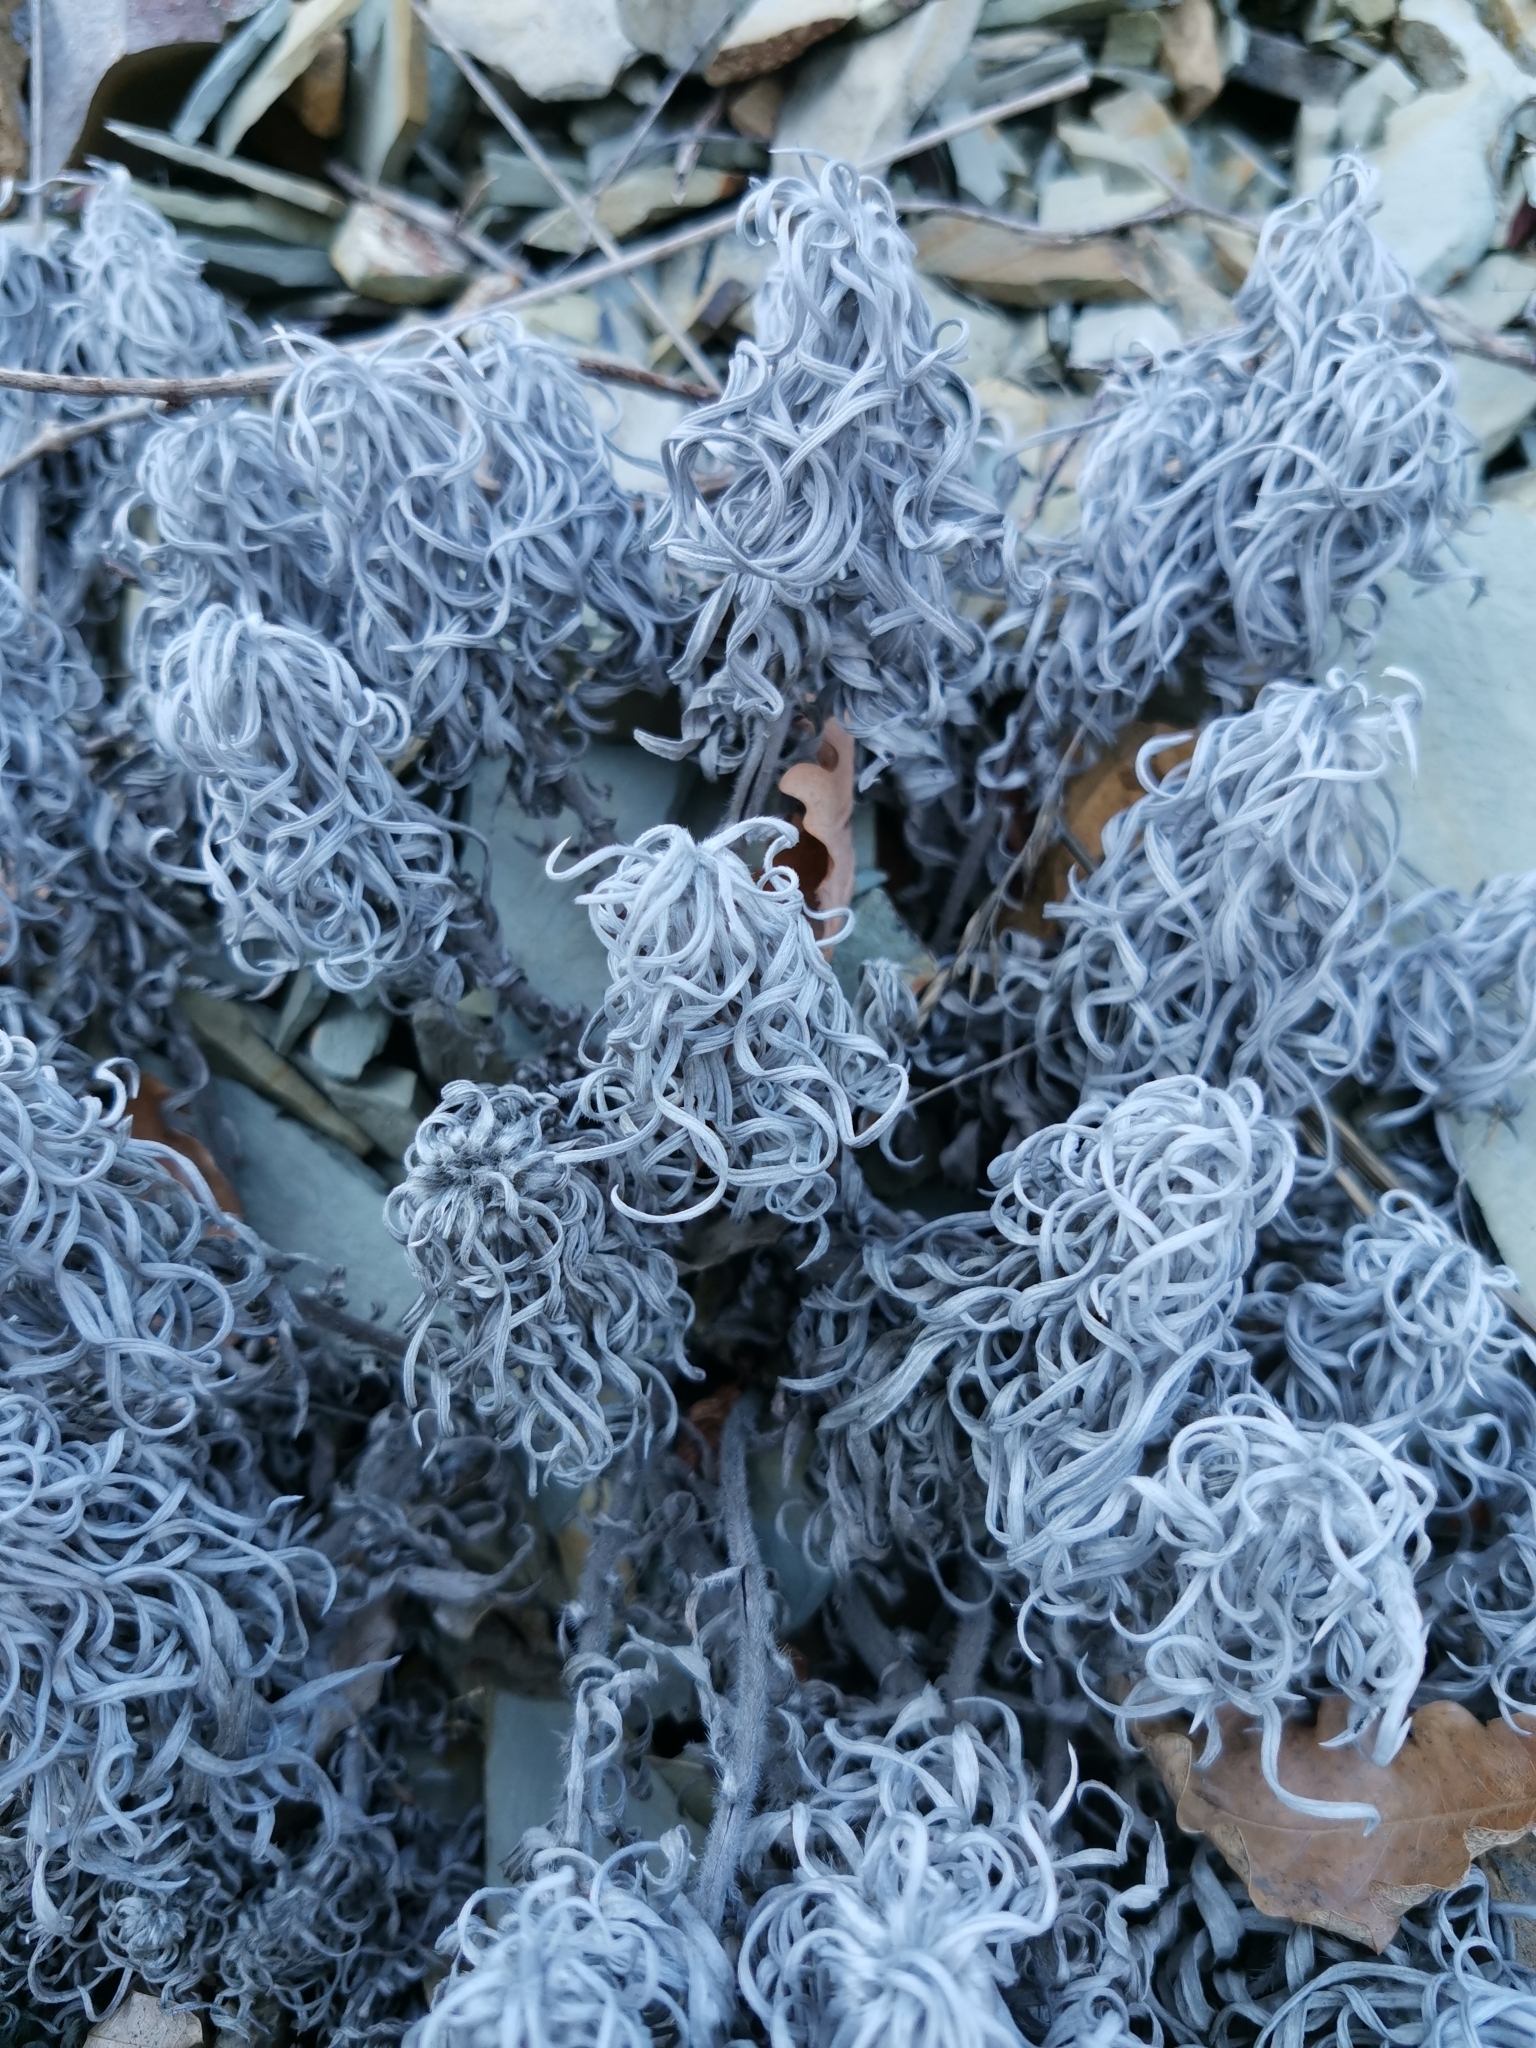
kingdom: Plantae
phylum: Tracheophyta
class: Magnoliopsida
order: Boraginales
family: Boraginaceae
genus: Onosma
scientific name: Onosma polyphylla
